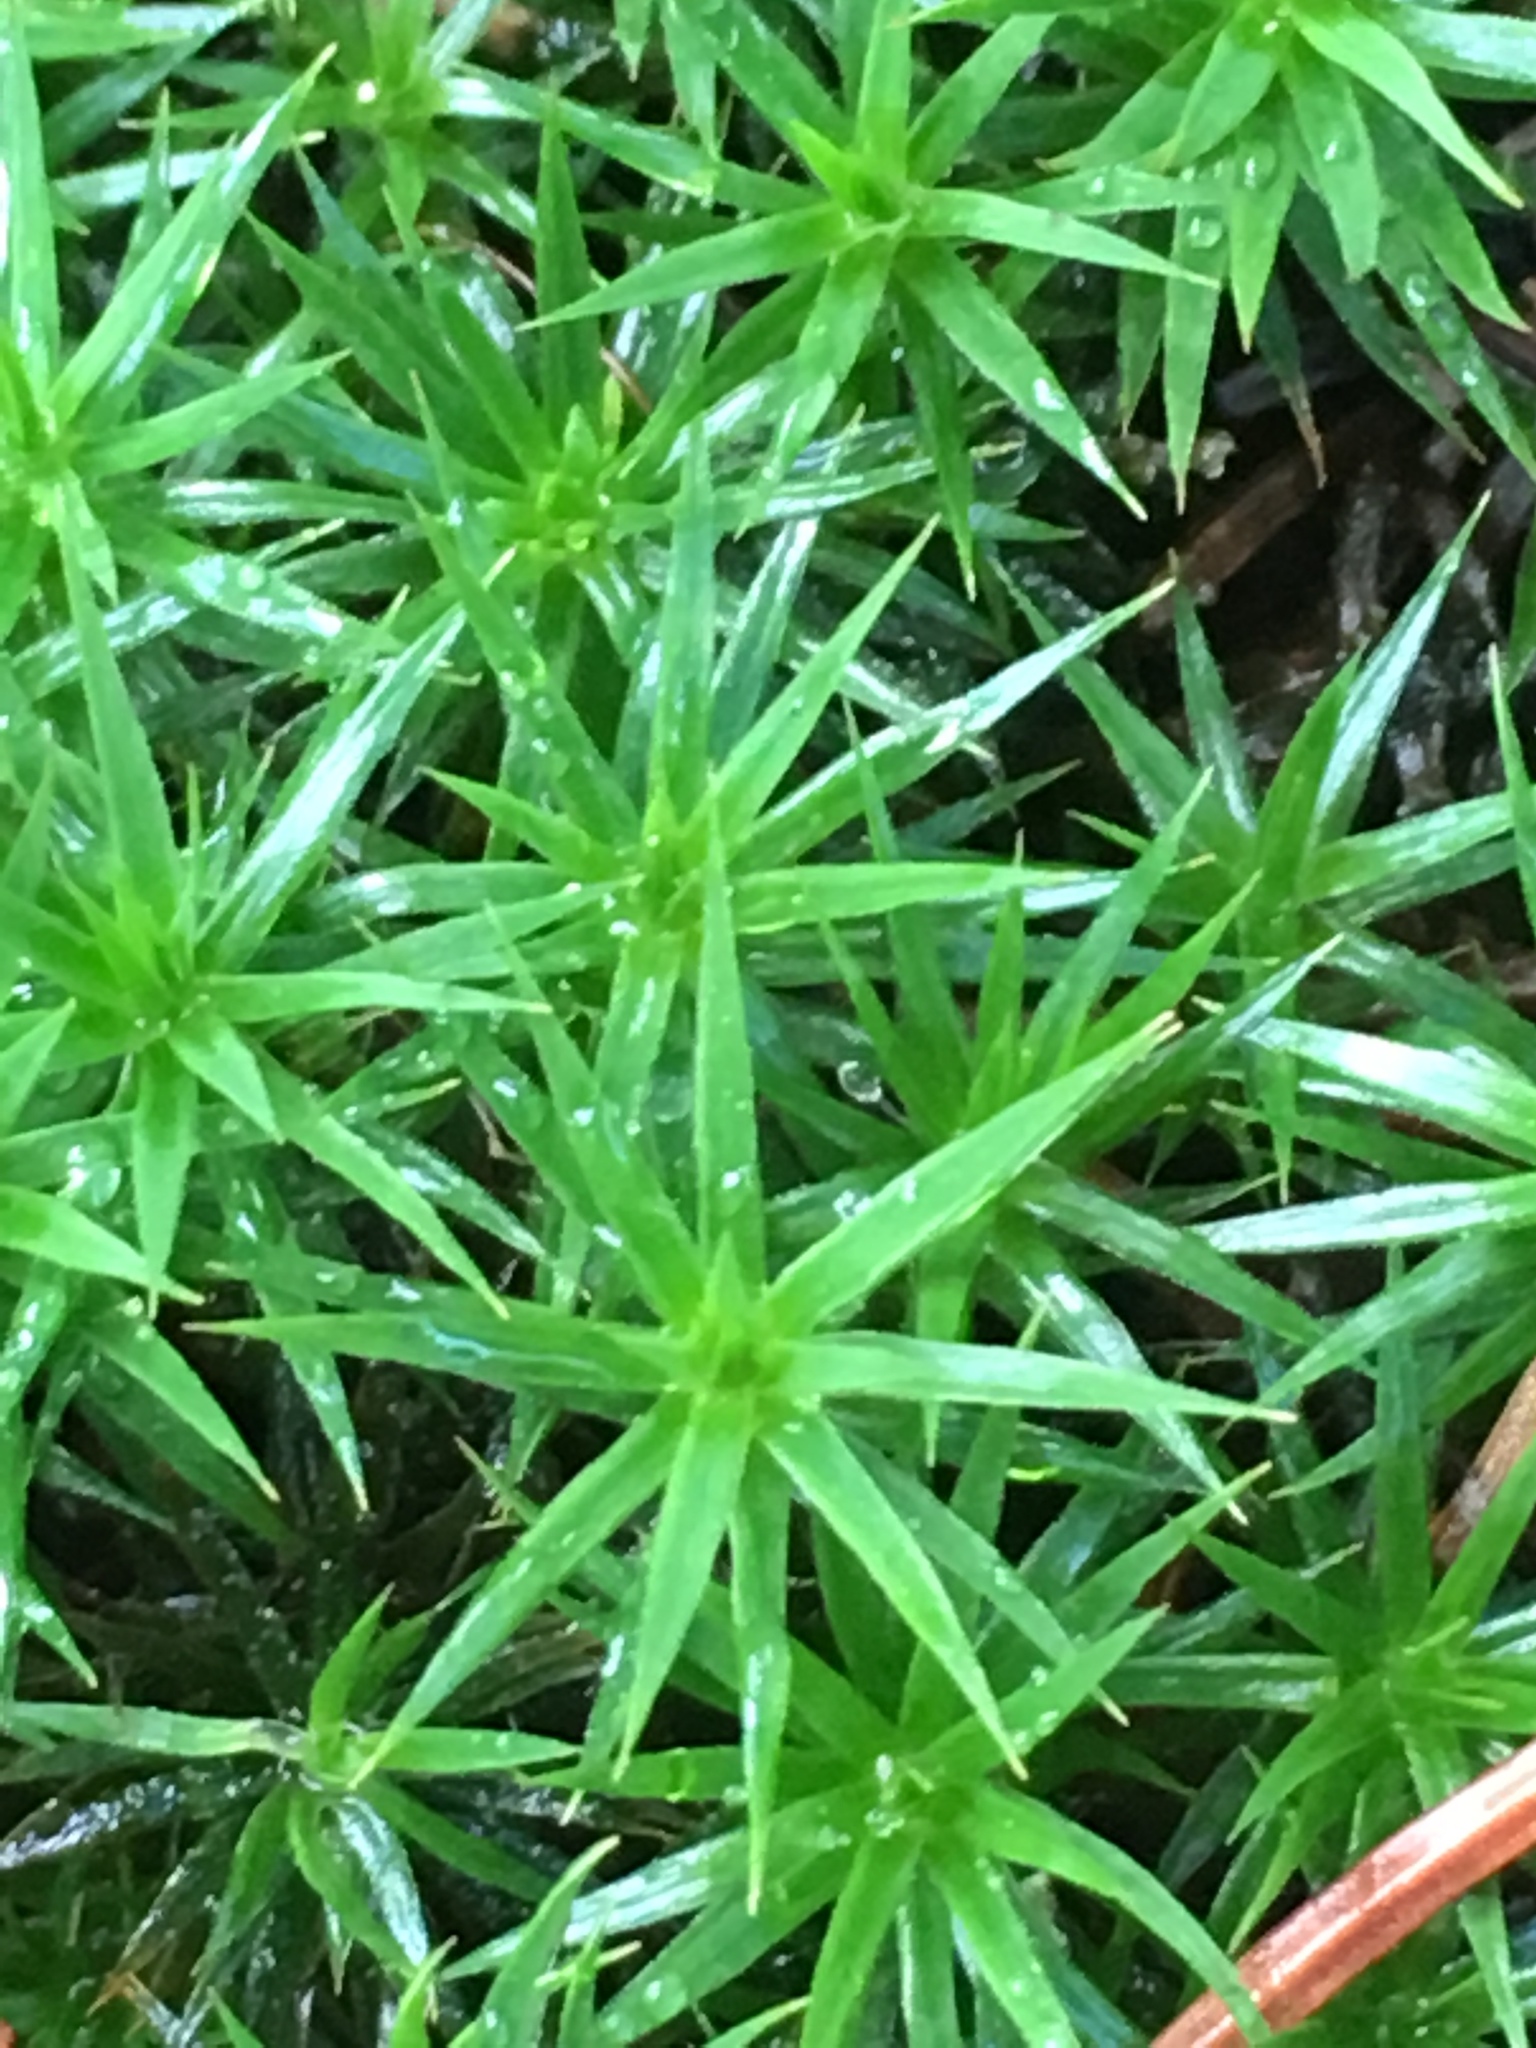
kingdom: Plantae
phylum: Bryophyta
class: Polytrichopsida
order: Polytrichales
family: Polytrichaceae
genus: Polytrichum
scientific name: Polytrichum formosum
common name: Bank haircap moss
